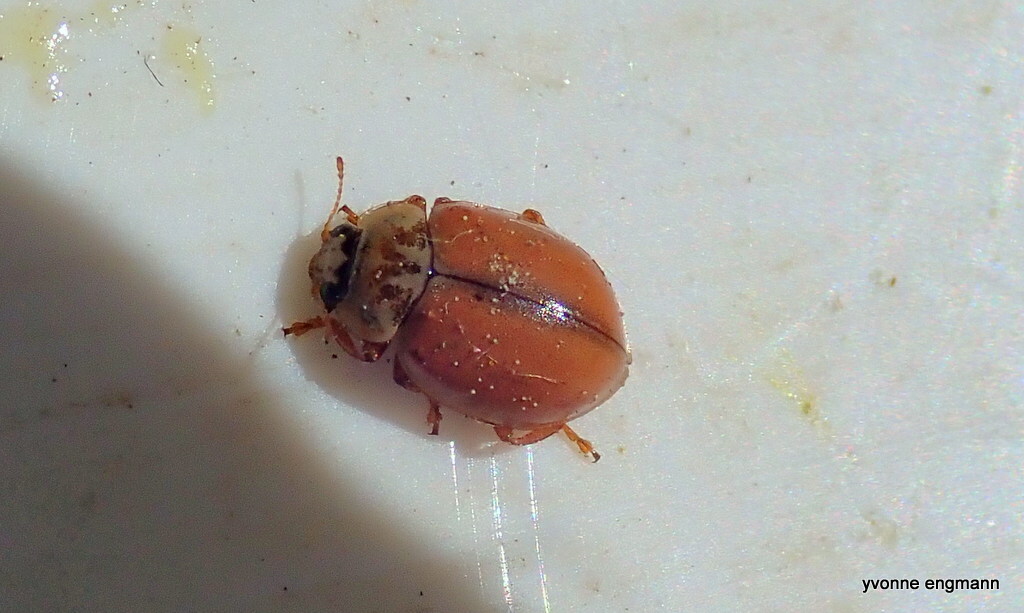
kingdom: Animalia
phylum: Arthropoda
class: Insecta
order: Coleoptera
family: Coccinellidae
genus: Aphidecta
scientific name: Aphidecta obliterata
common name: Larch ladybird
